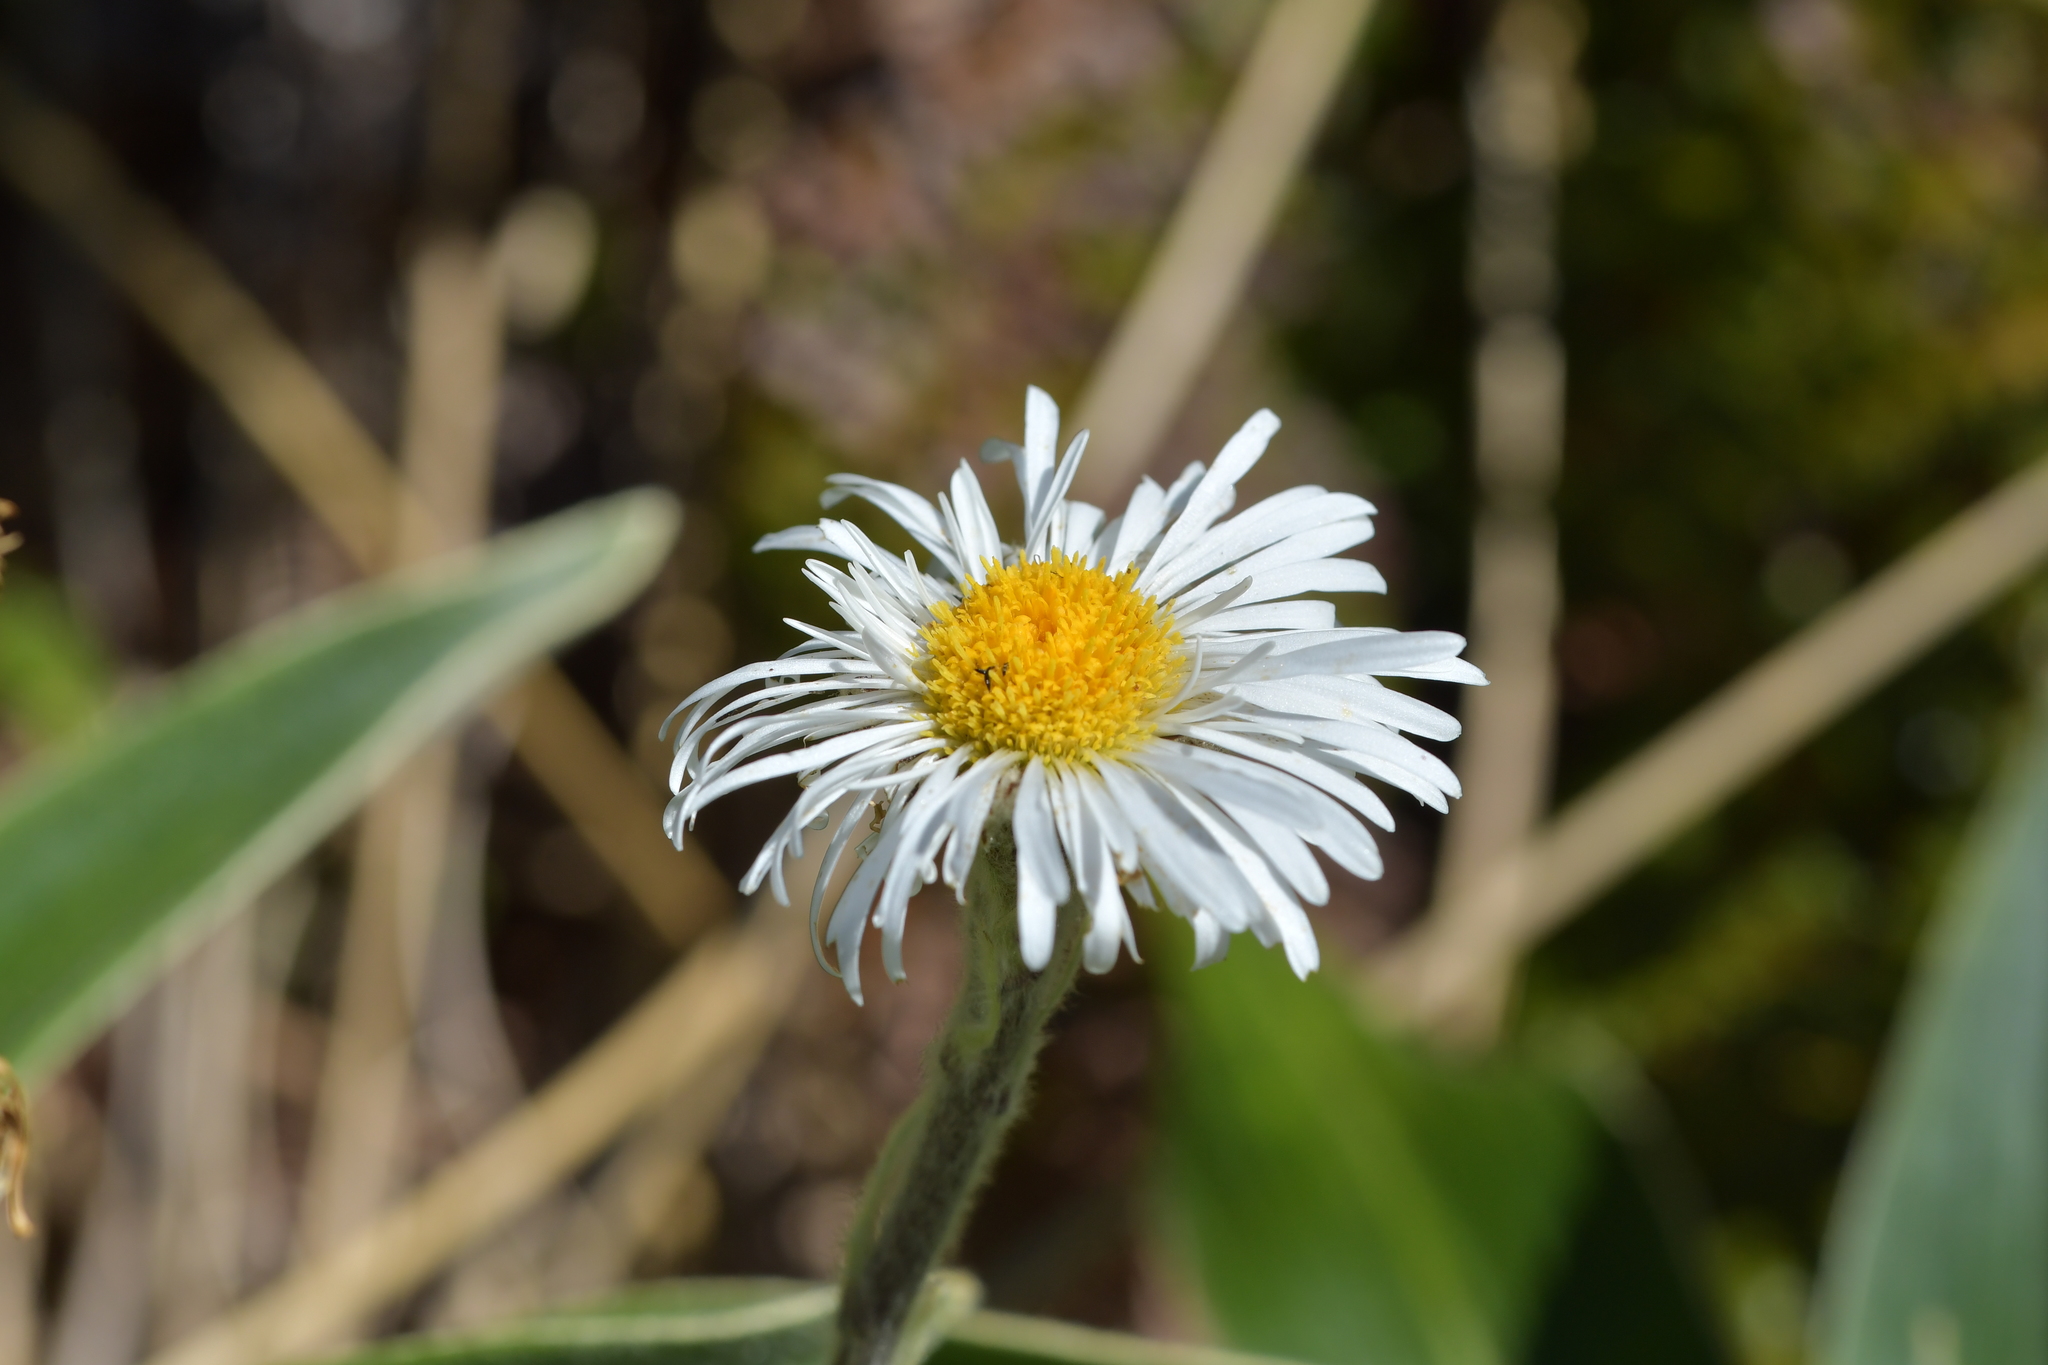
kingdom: Plantae
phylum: Tracheophyta
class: Magnoliopsida
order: Asterales
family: Asteraceae
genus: Celmisia
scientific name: Celmisia verbascifolia
